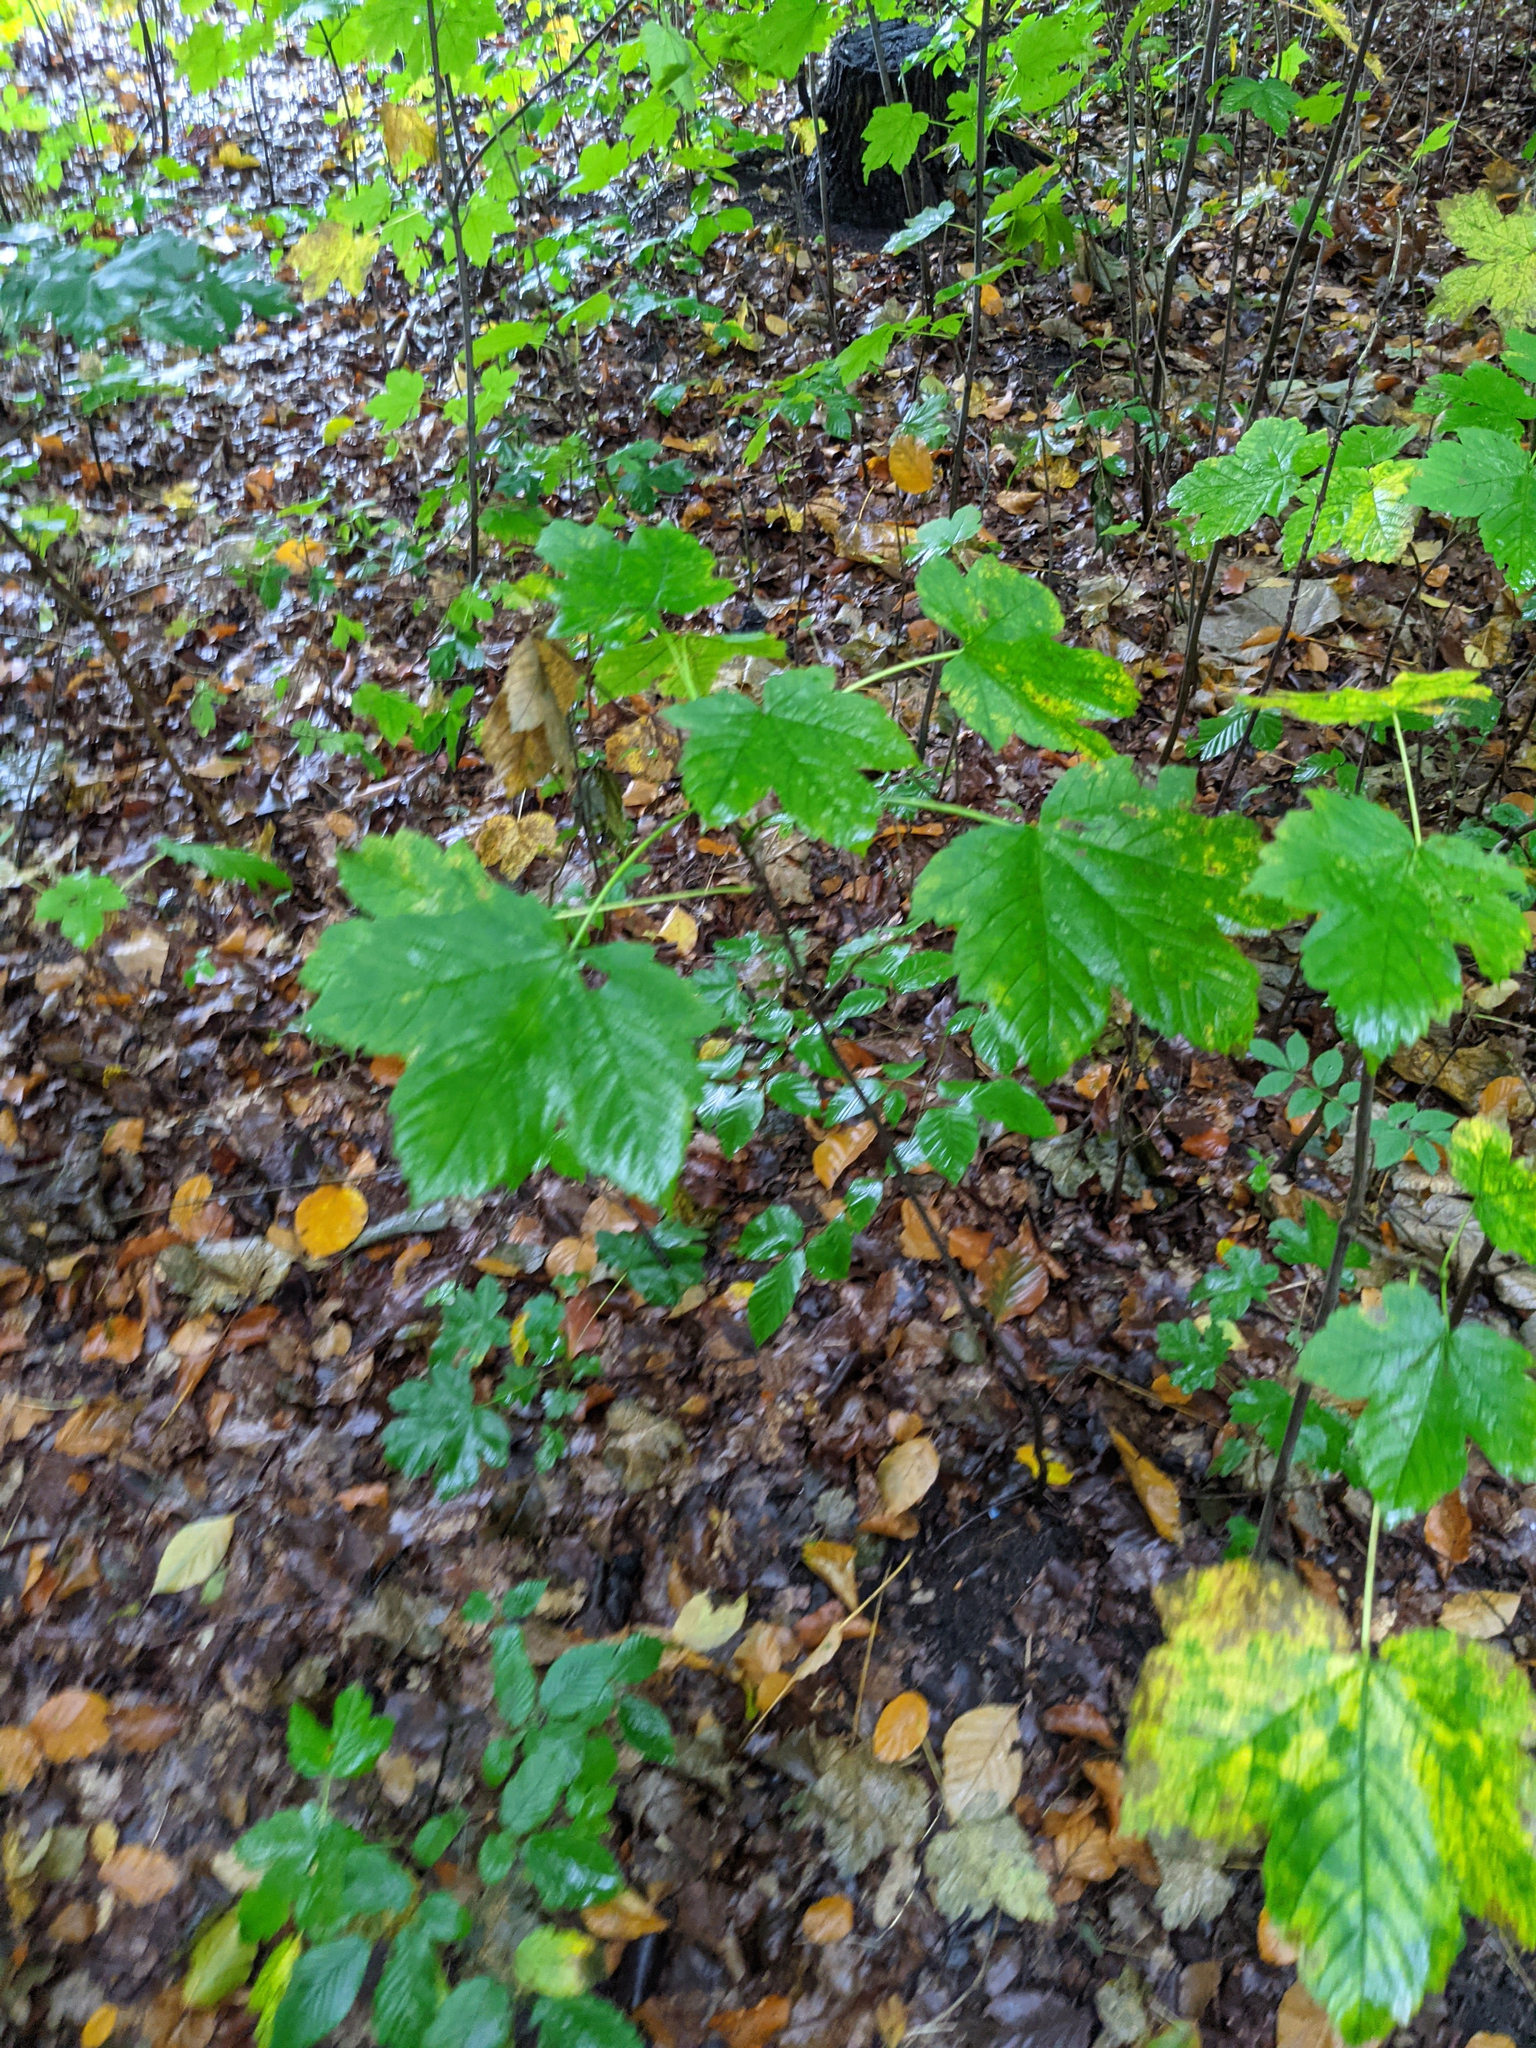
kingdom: Plantae
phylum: Tracheophyta
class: Magnoliopsida
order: Sapindales
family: Sapindaceae
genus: Acer
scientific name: Acer pseudoplatanus
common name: Sycamore
